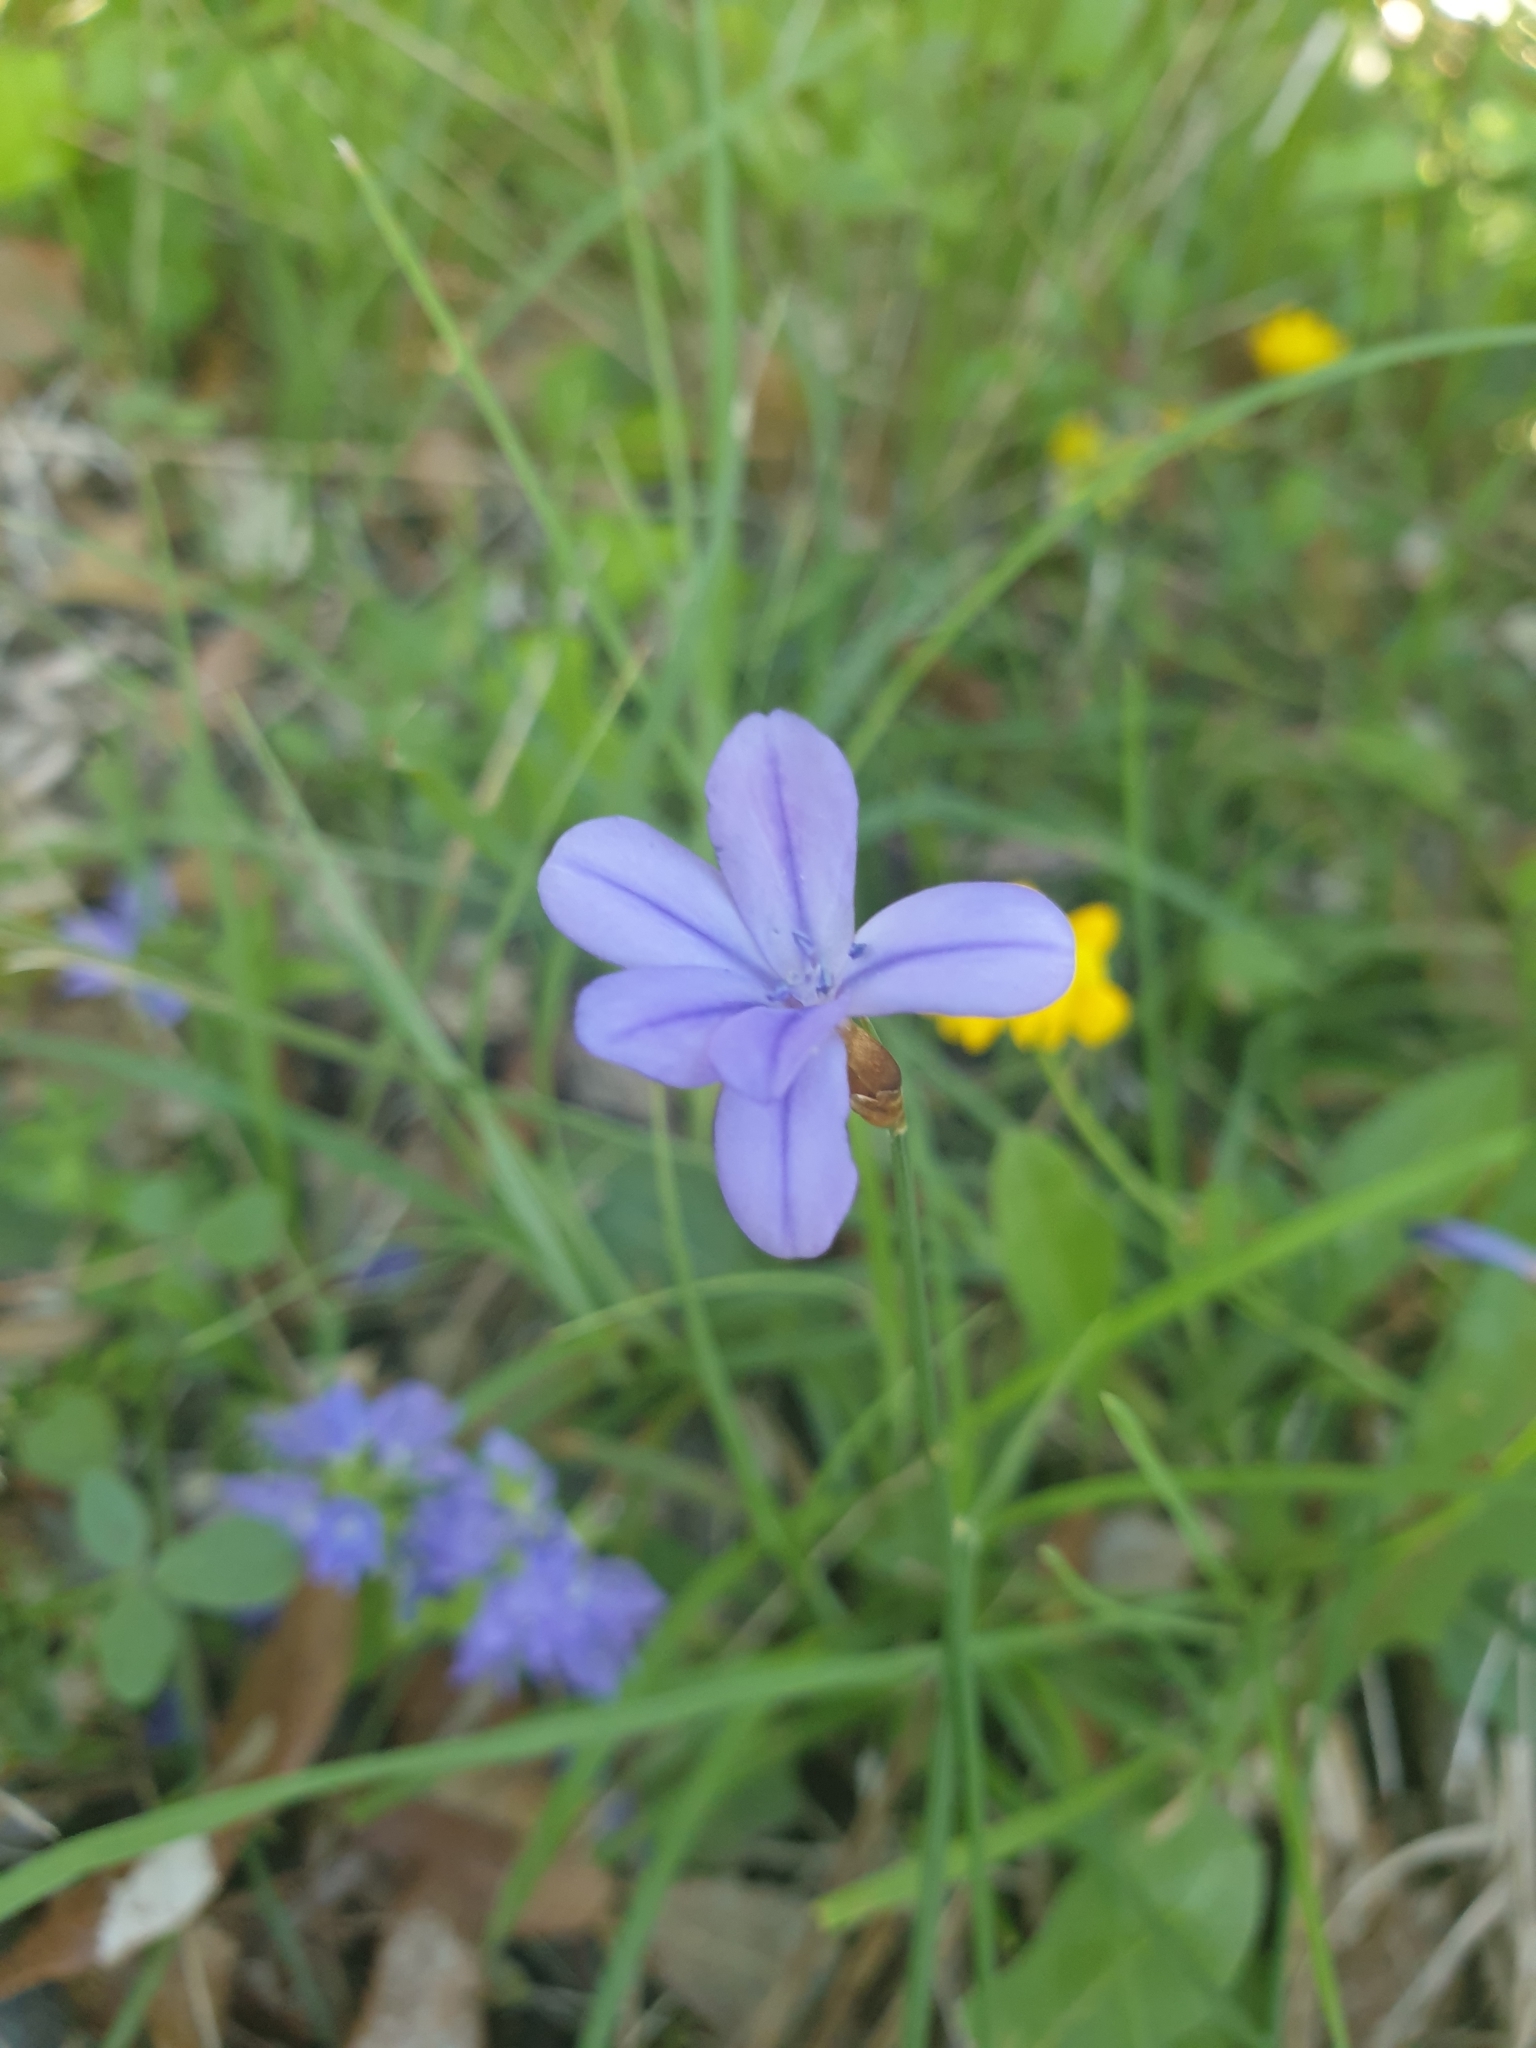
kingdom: Plantae
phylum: Tracheophyta
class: Liliopsida
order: Asparagales
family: Asparagaceae
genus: Aphyllanthes
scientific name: Aphyllanthes monspeliensis
